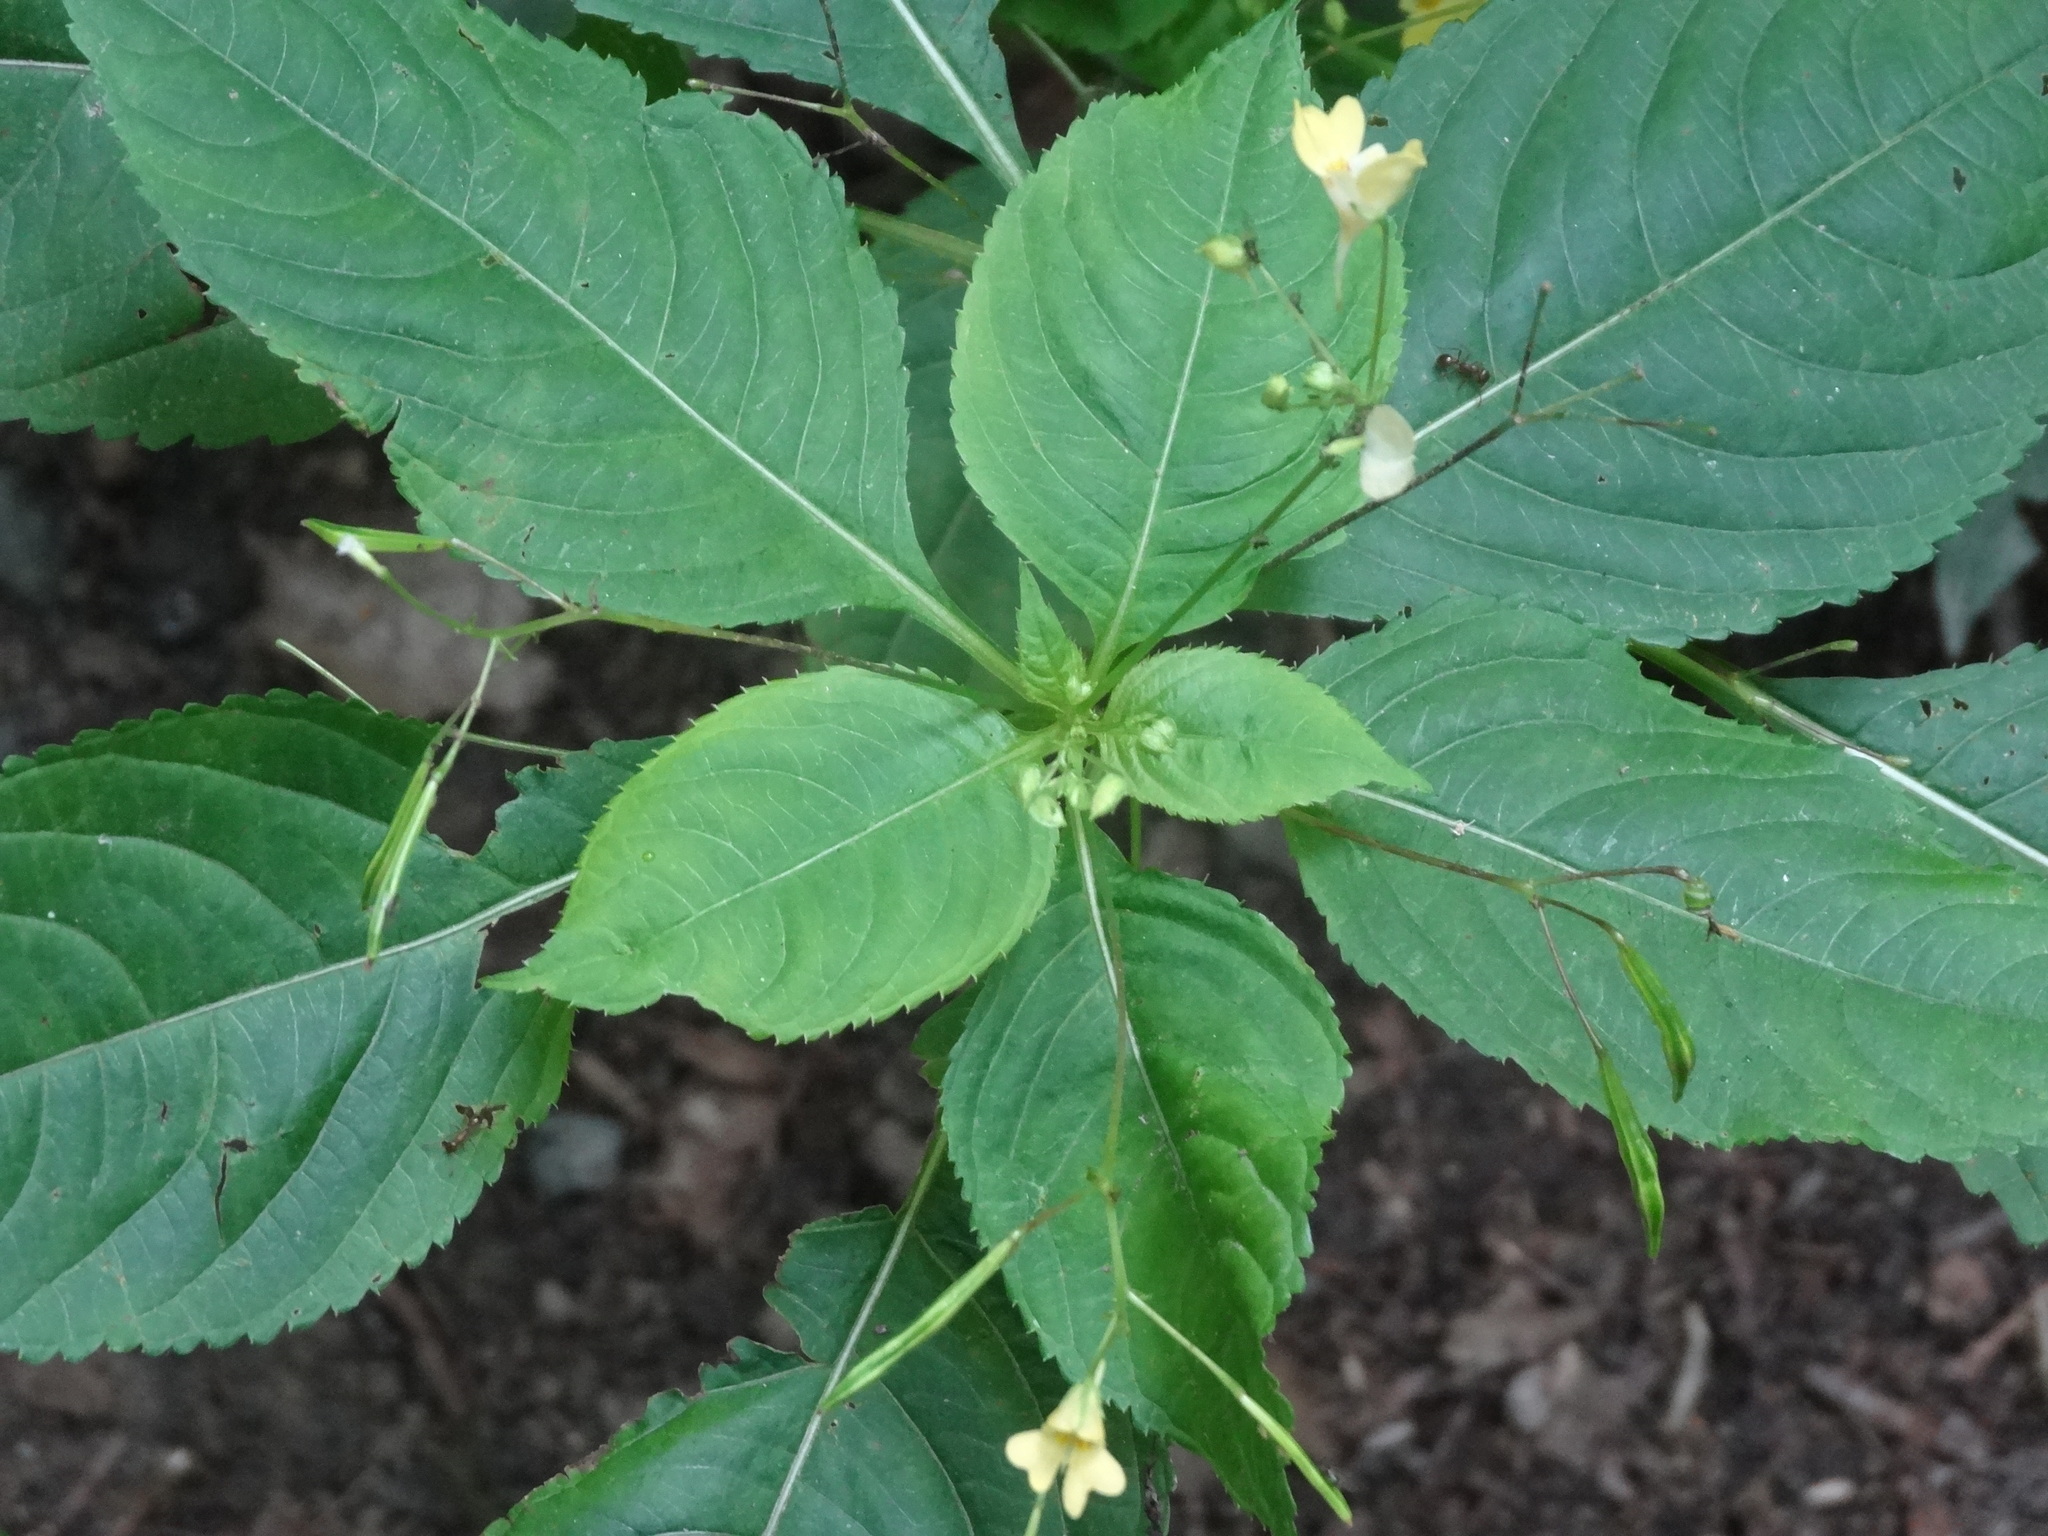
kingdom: Plantae
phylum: Tracheophyta
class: Magnoliopsida
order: Ericales
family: Balsaminaceae
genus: Impatiens
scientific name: Impatiens parviflora
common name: Small balsam
